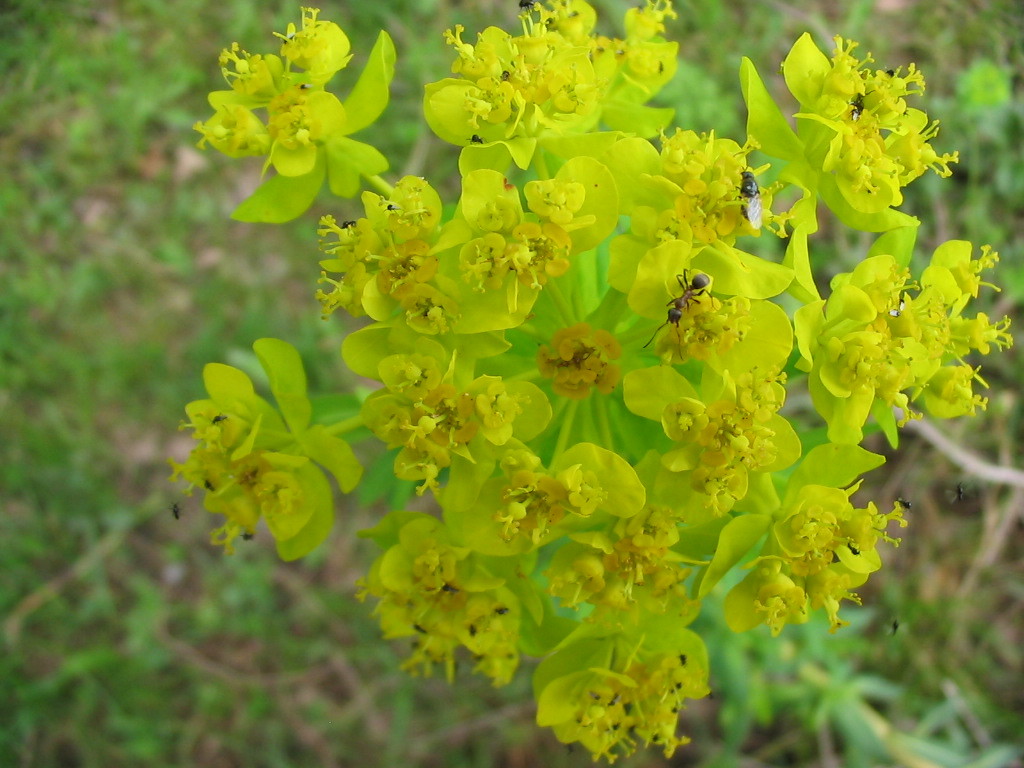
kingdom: Plantae
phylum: Tracheophyta
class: Magnoliopsida
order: Malpighiales
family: Euphorbiaceae
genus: Euphorbia
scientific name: Euphorbia palustris
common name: Marsh spurge
